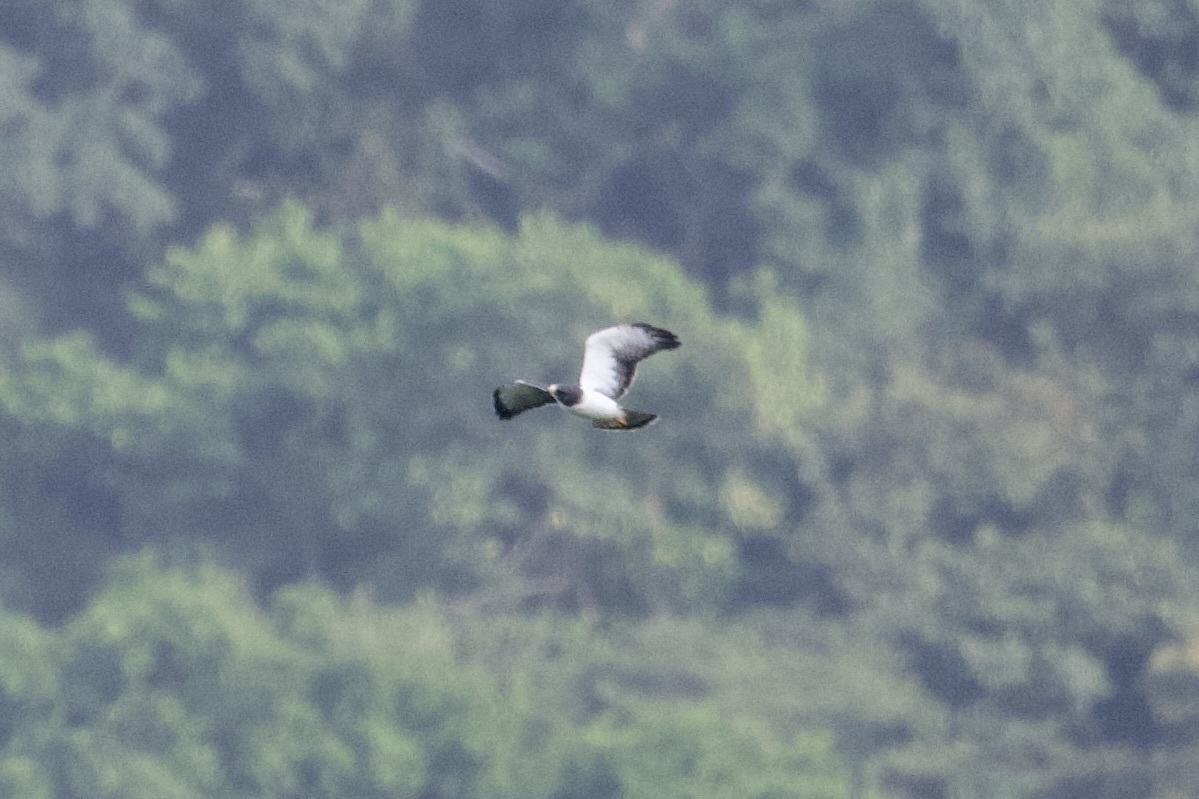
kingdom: Animalia
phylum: Chordata
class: Aves
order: Accipitriformes
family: Accipitridae
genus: Buteo
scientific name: Buteo brachyurus
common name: Short-tailed hawk
